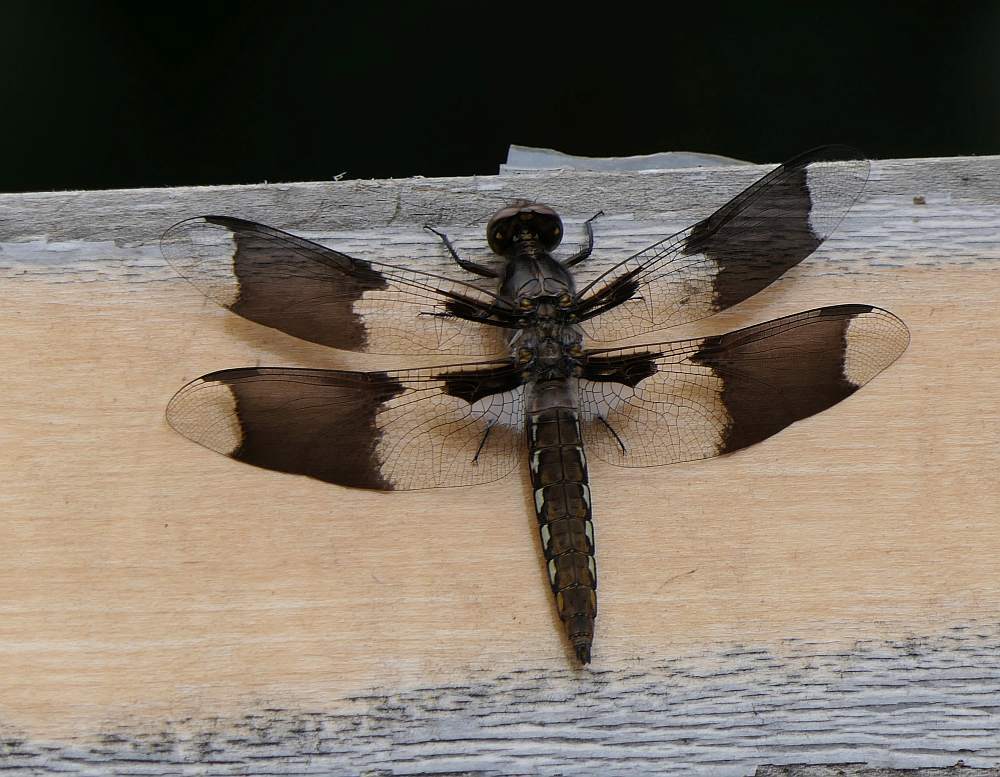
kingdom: Animalia
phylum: Arthropoda
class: Insecta
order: Odonata
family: Libellulidae
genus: Plathemis
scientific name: Plathemis lydia
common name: Common whitetail
